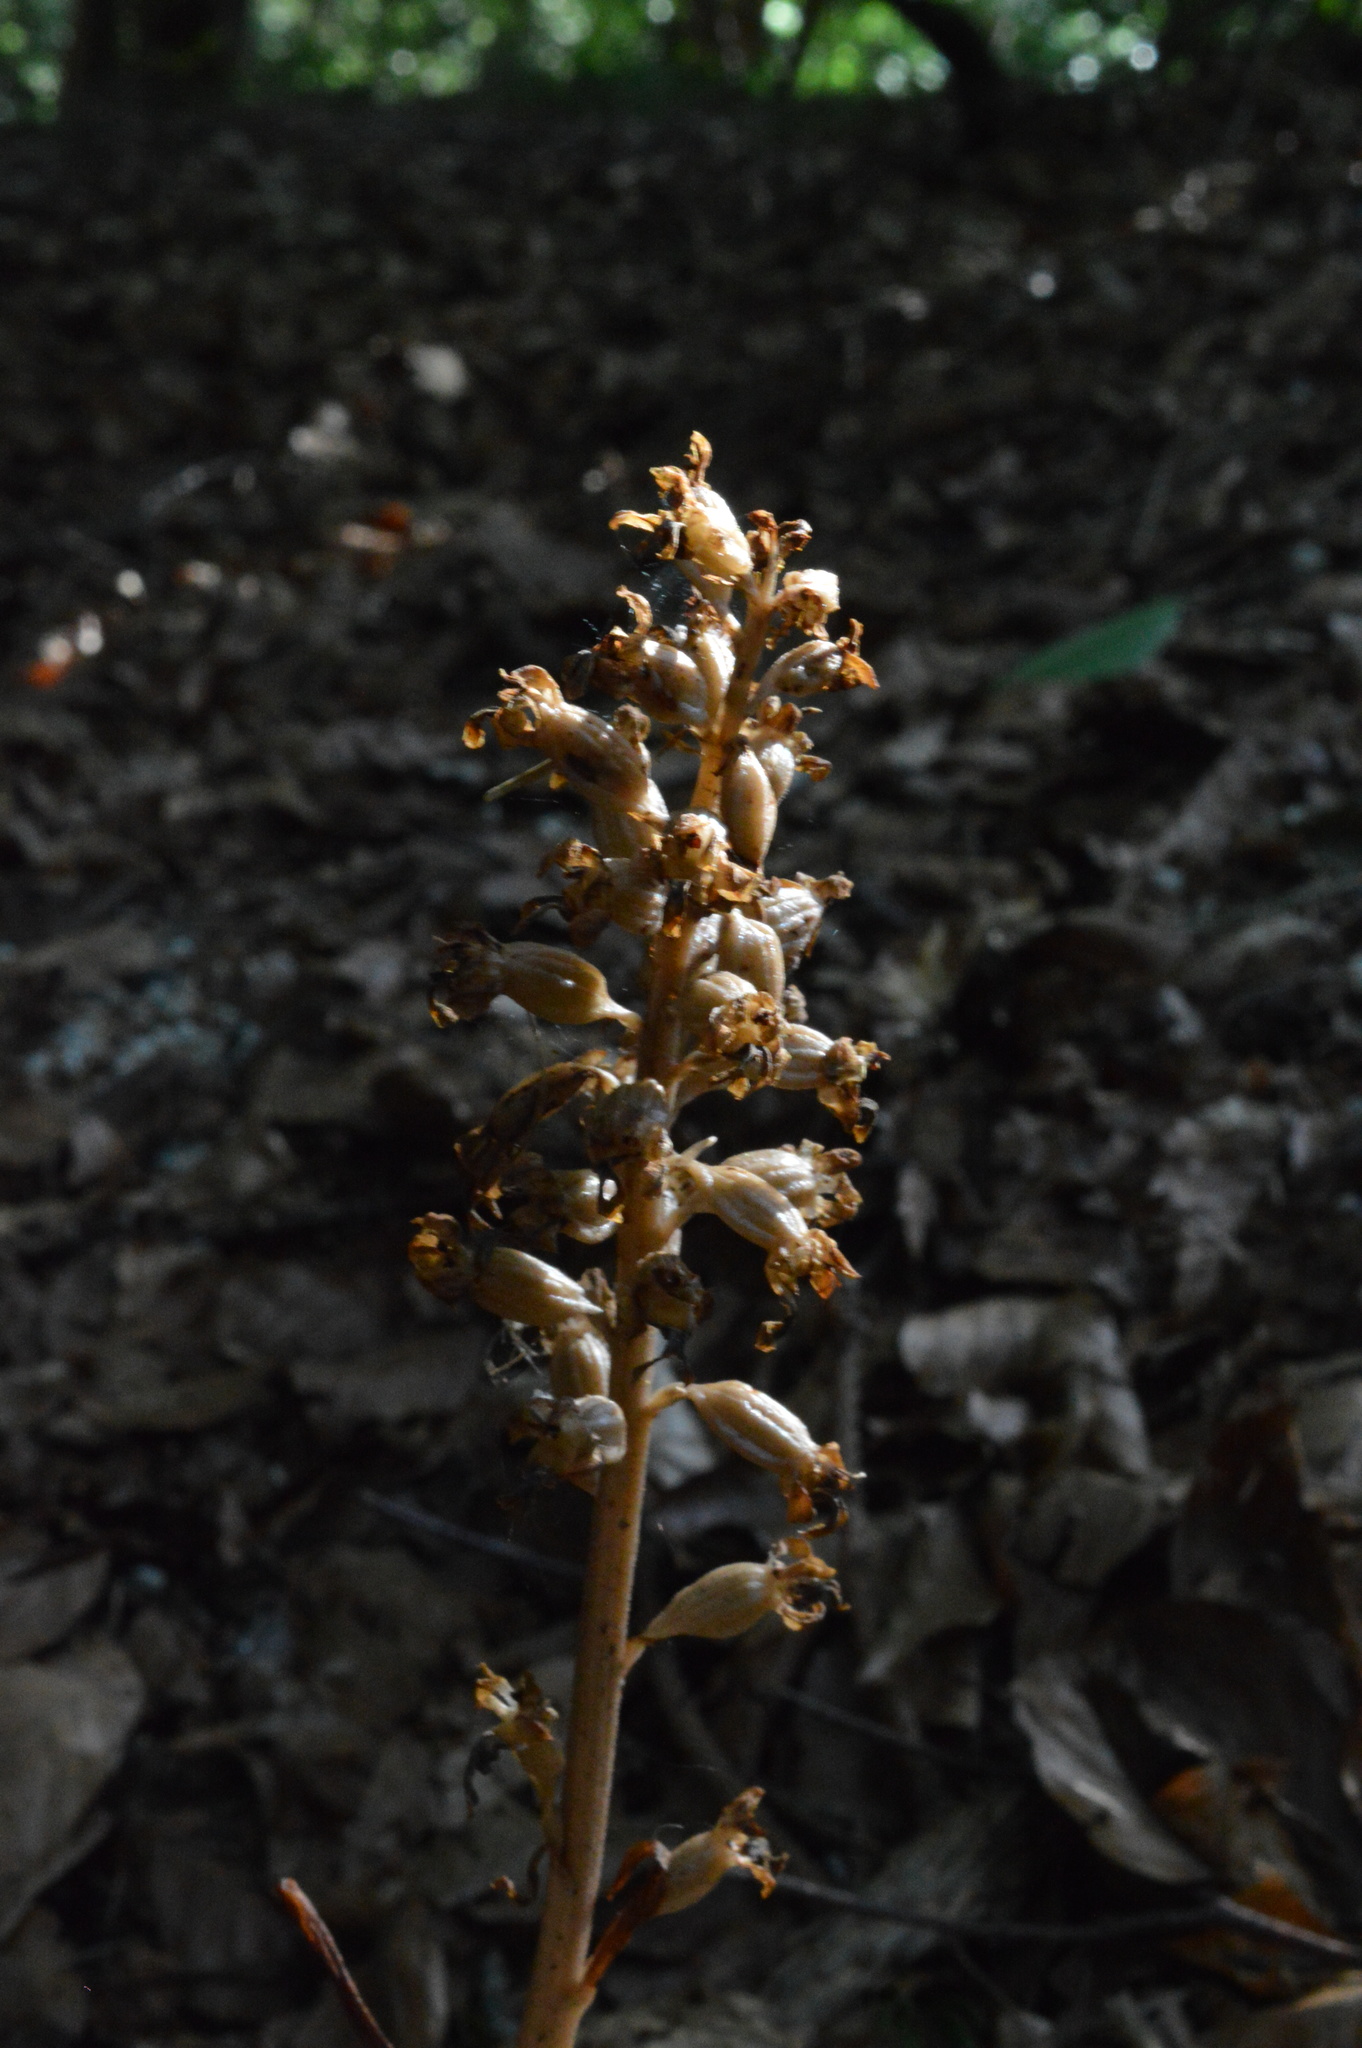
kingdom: Plantae
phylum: Tracheophyta
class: Liliopsida
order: Asparagales
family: Orchidaceae
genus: Neottia
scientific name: Neottia nidus-avis
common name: Bird's-nest orchid
